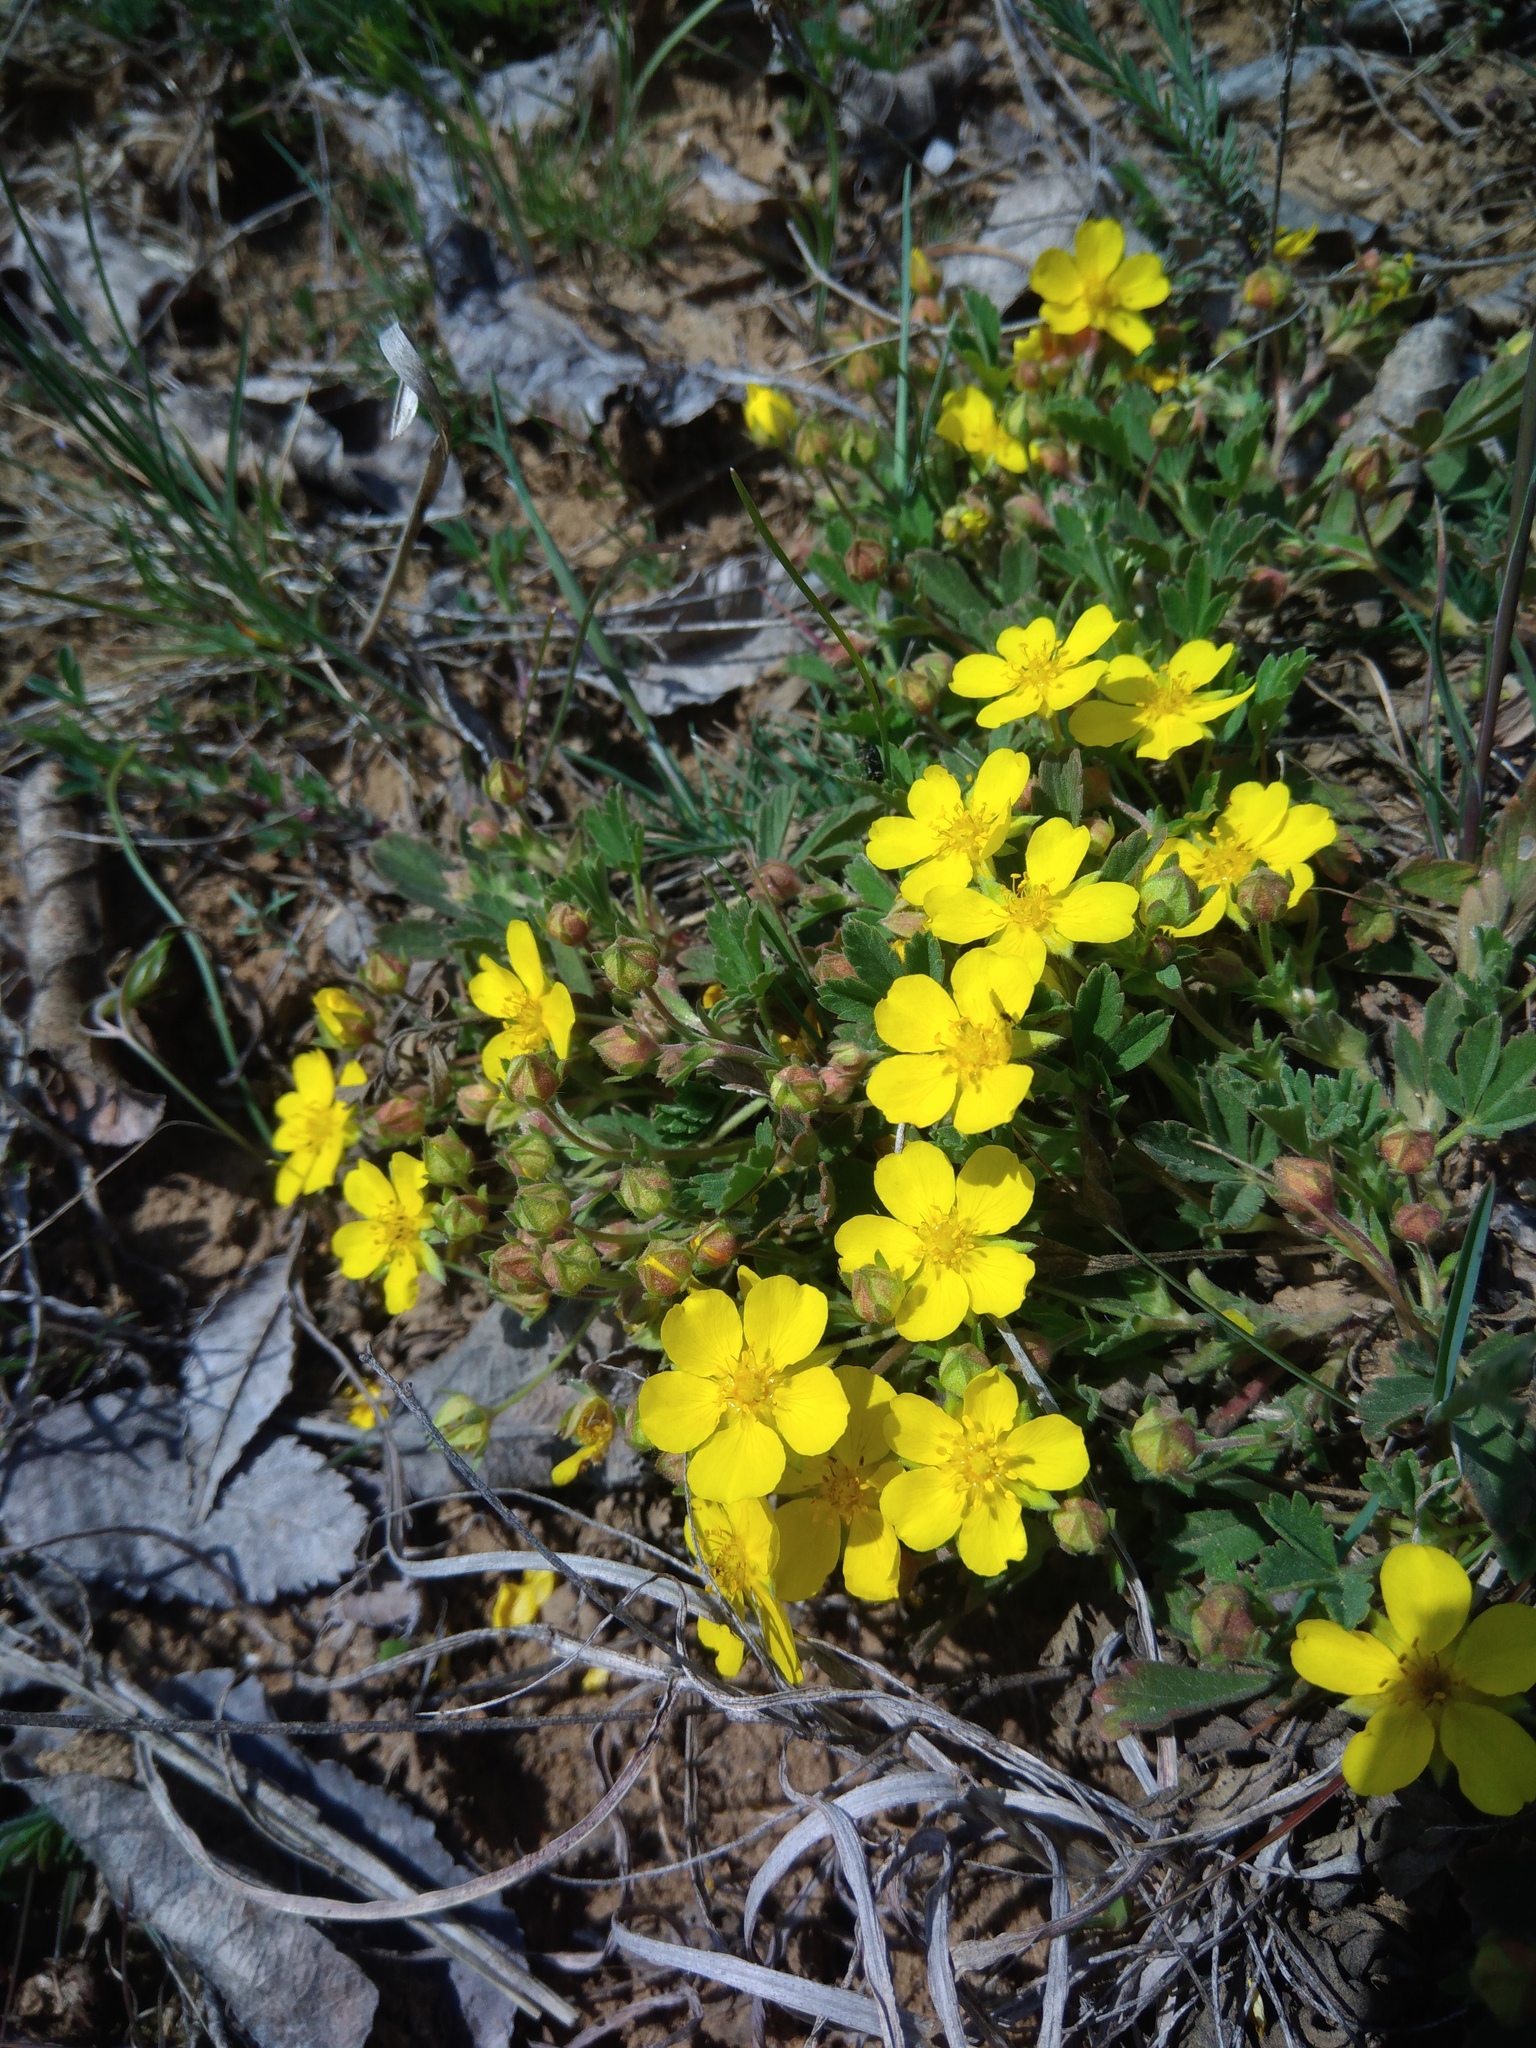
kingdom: Plantae
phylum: Tracheophyta
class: Magnoliopsida
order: Rosales
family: Rosaceae
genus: Potentilla
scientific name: Potentilla incana
